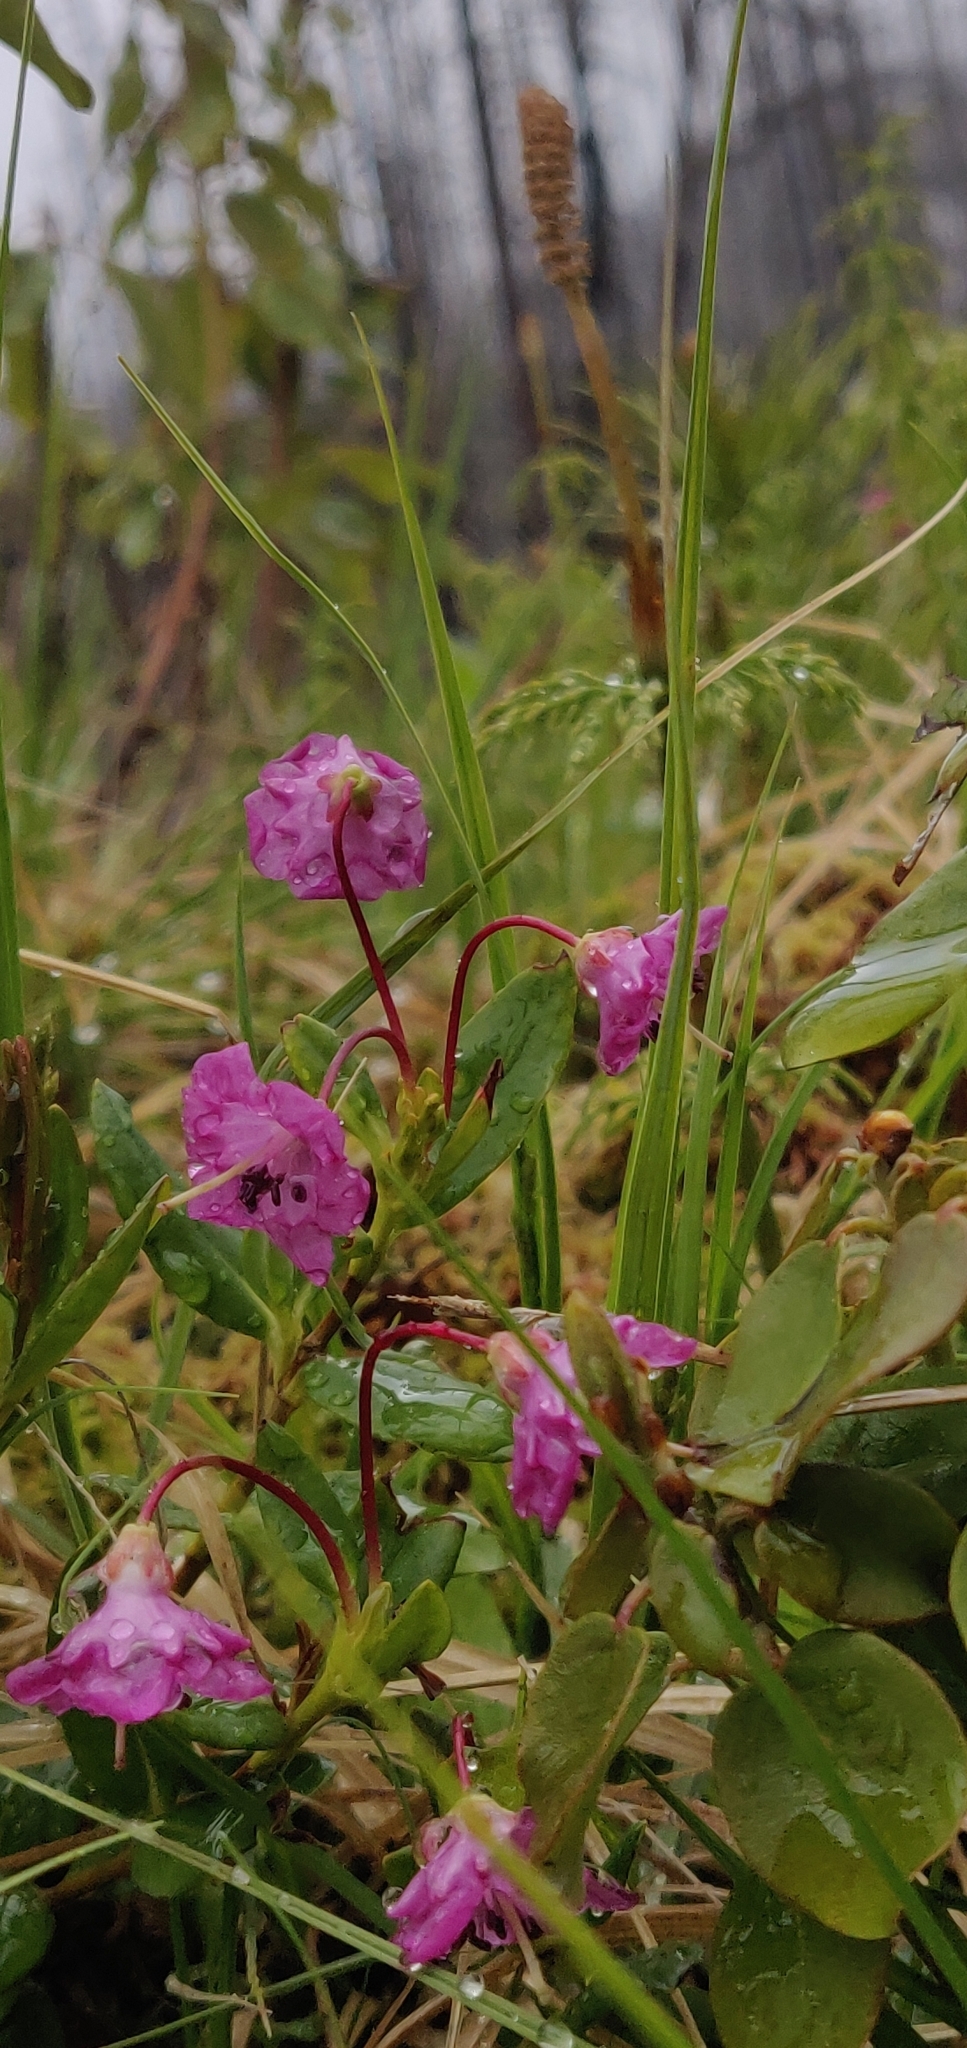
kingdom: Plantae
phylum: Tracheophyta
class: Magnoliopsida
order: Ericales
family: Ericaceae
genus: Kalmia
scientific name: Kalmia microphylla
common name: Alpine bog laurel
